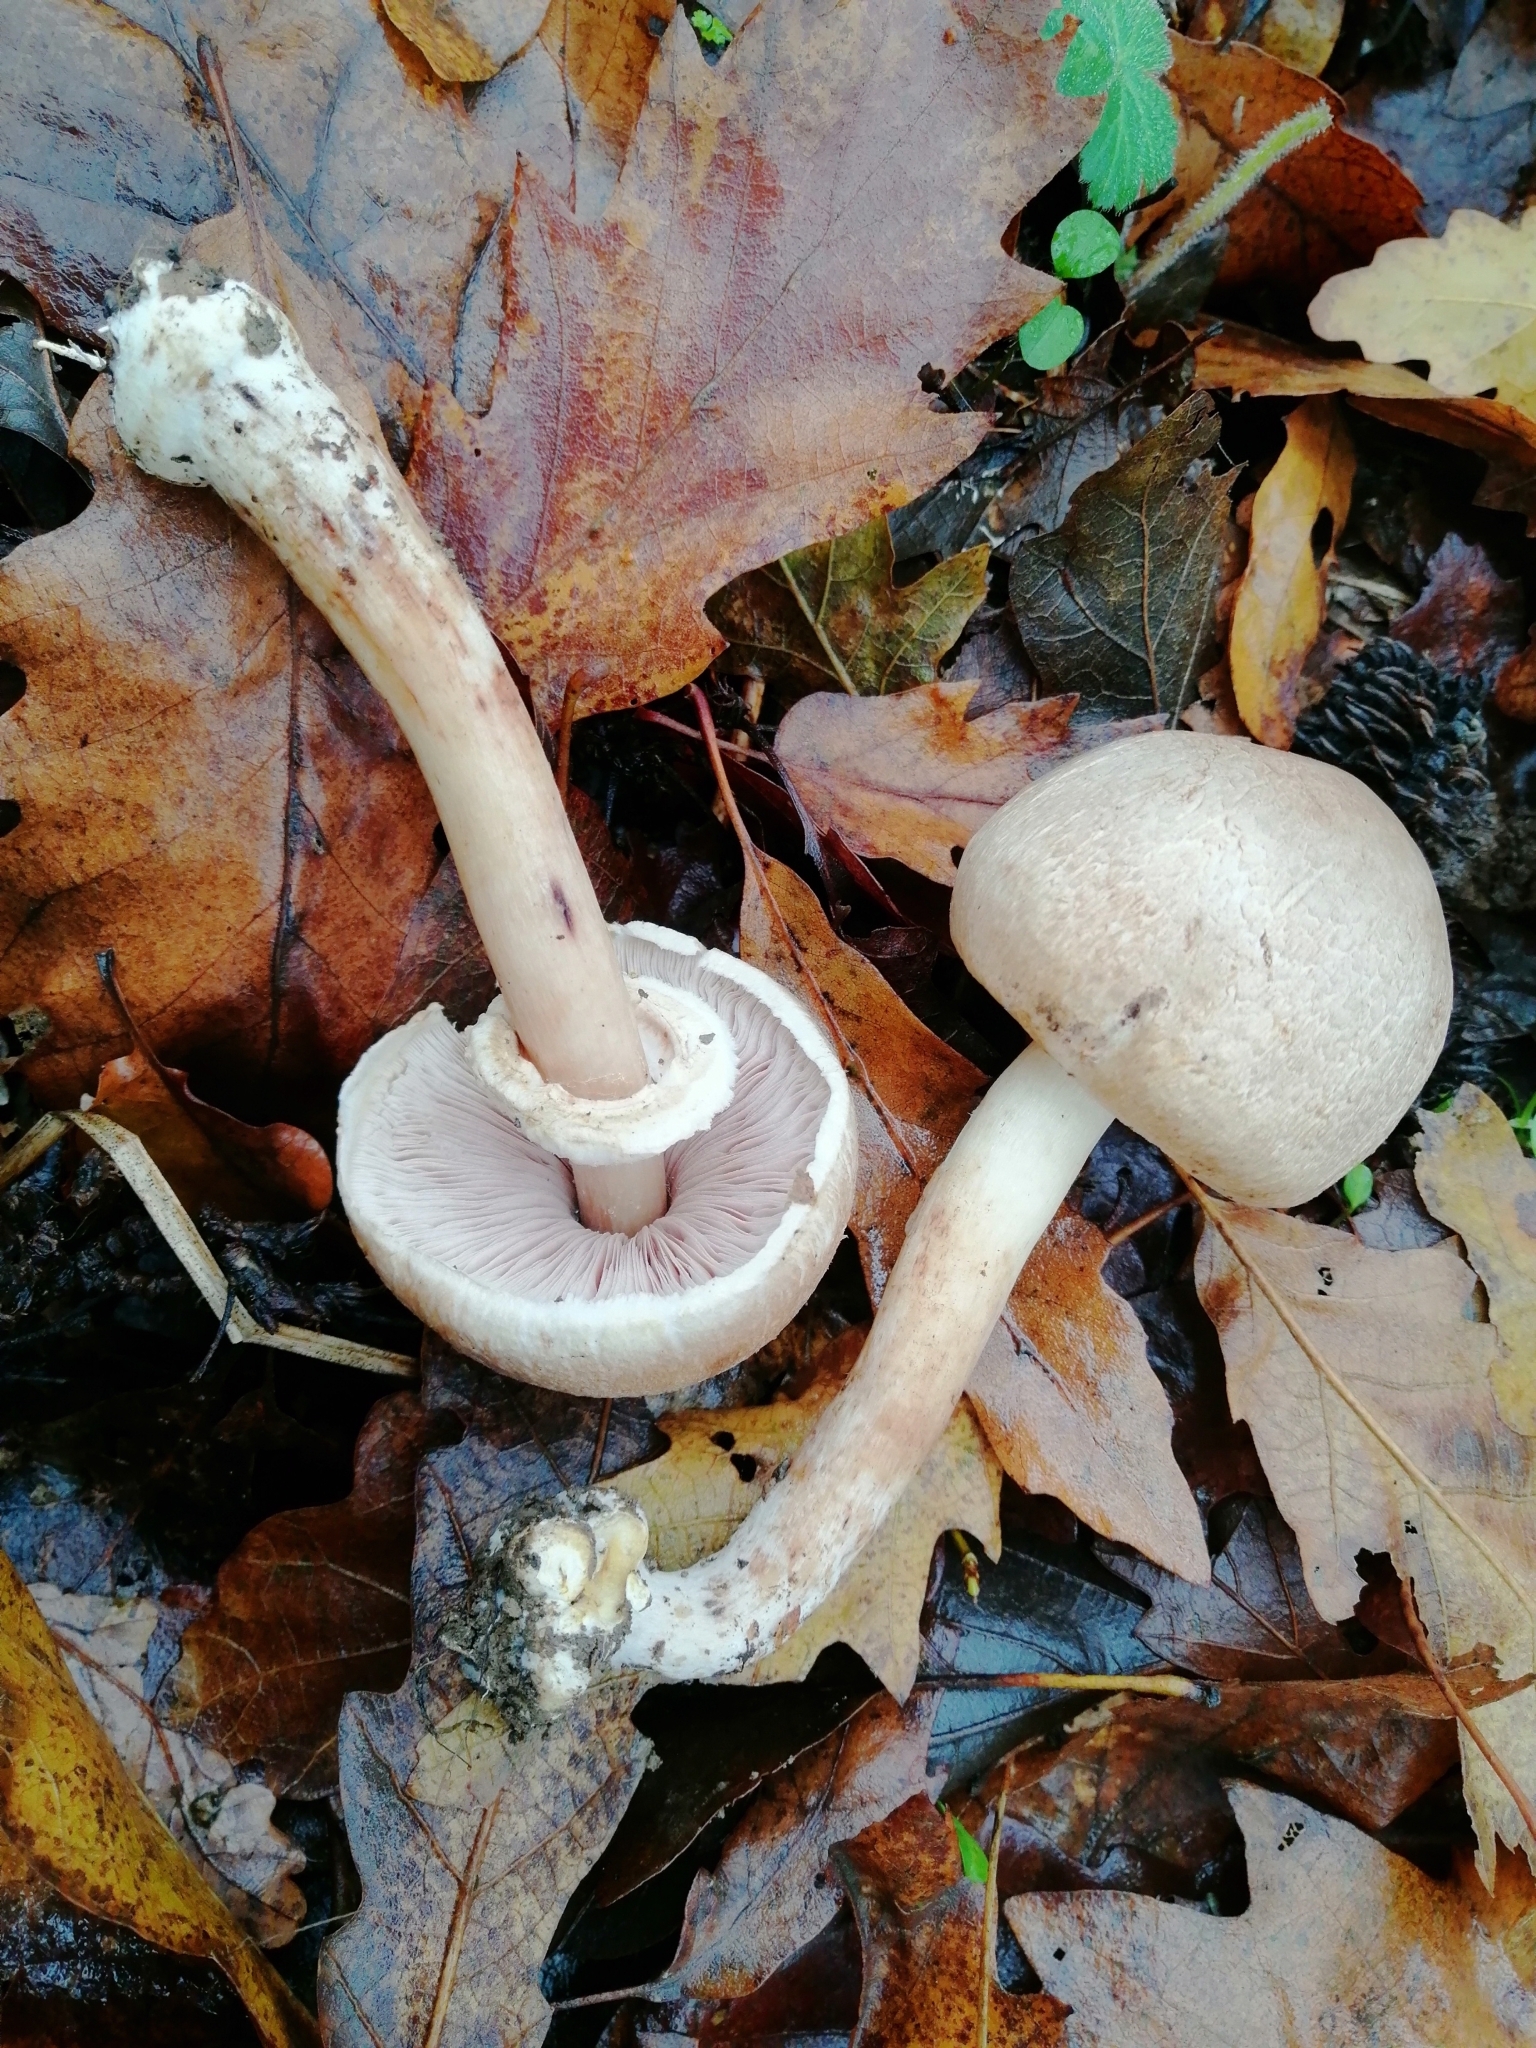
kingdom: Fungi
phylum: Basidiomycota
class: Agaricomycetes
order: Agaricales
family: Agaricaceae
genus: Agaricus
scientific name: Agaricus moelleri
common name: Inky mushroom
